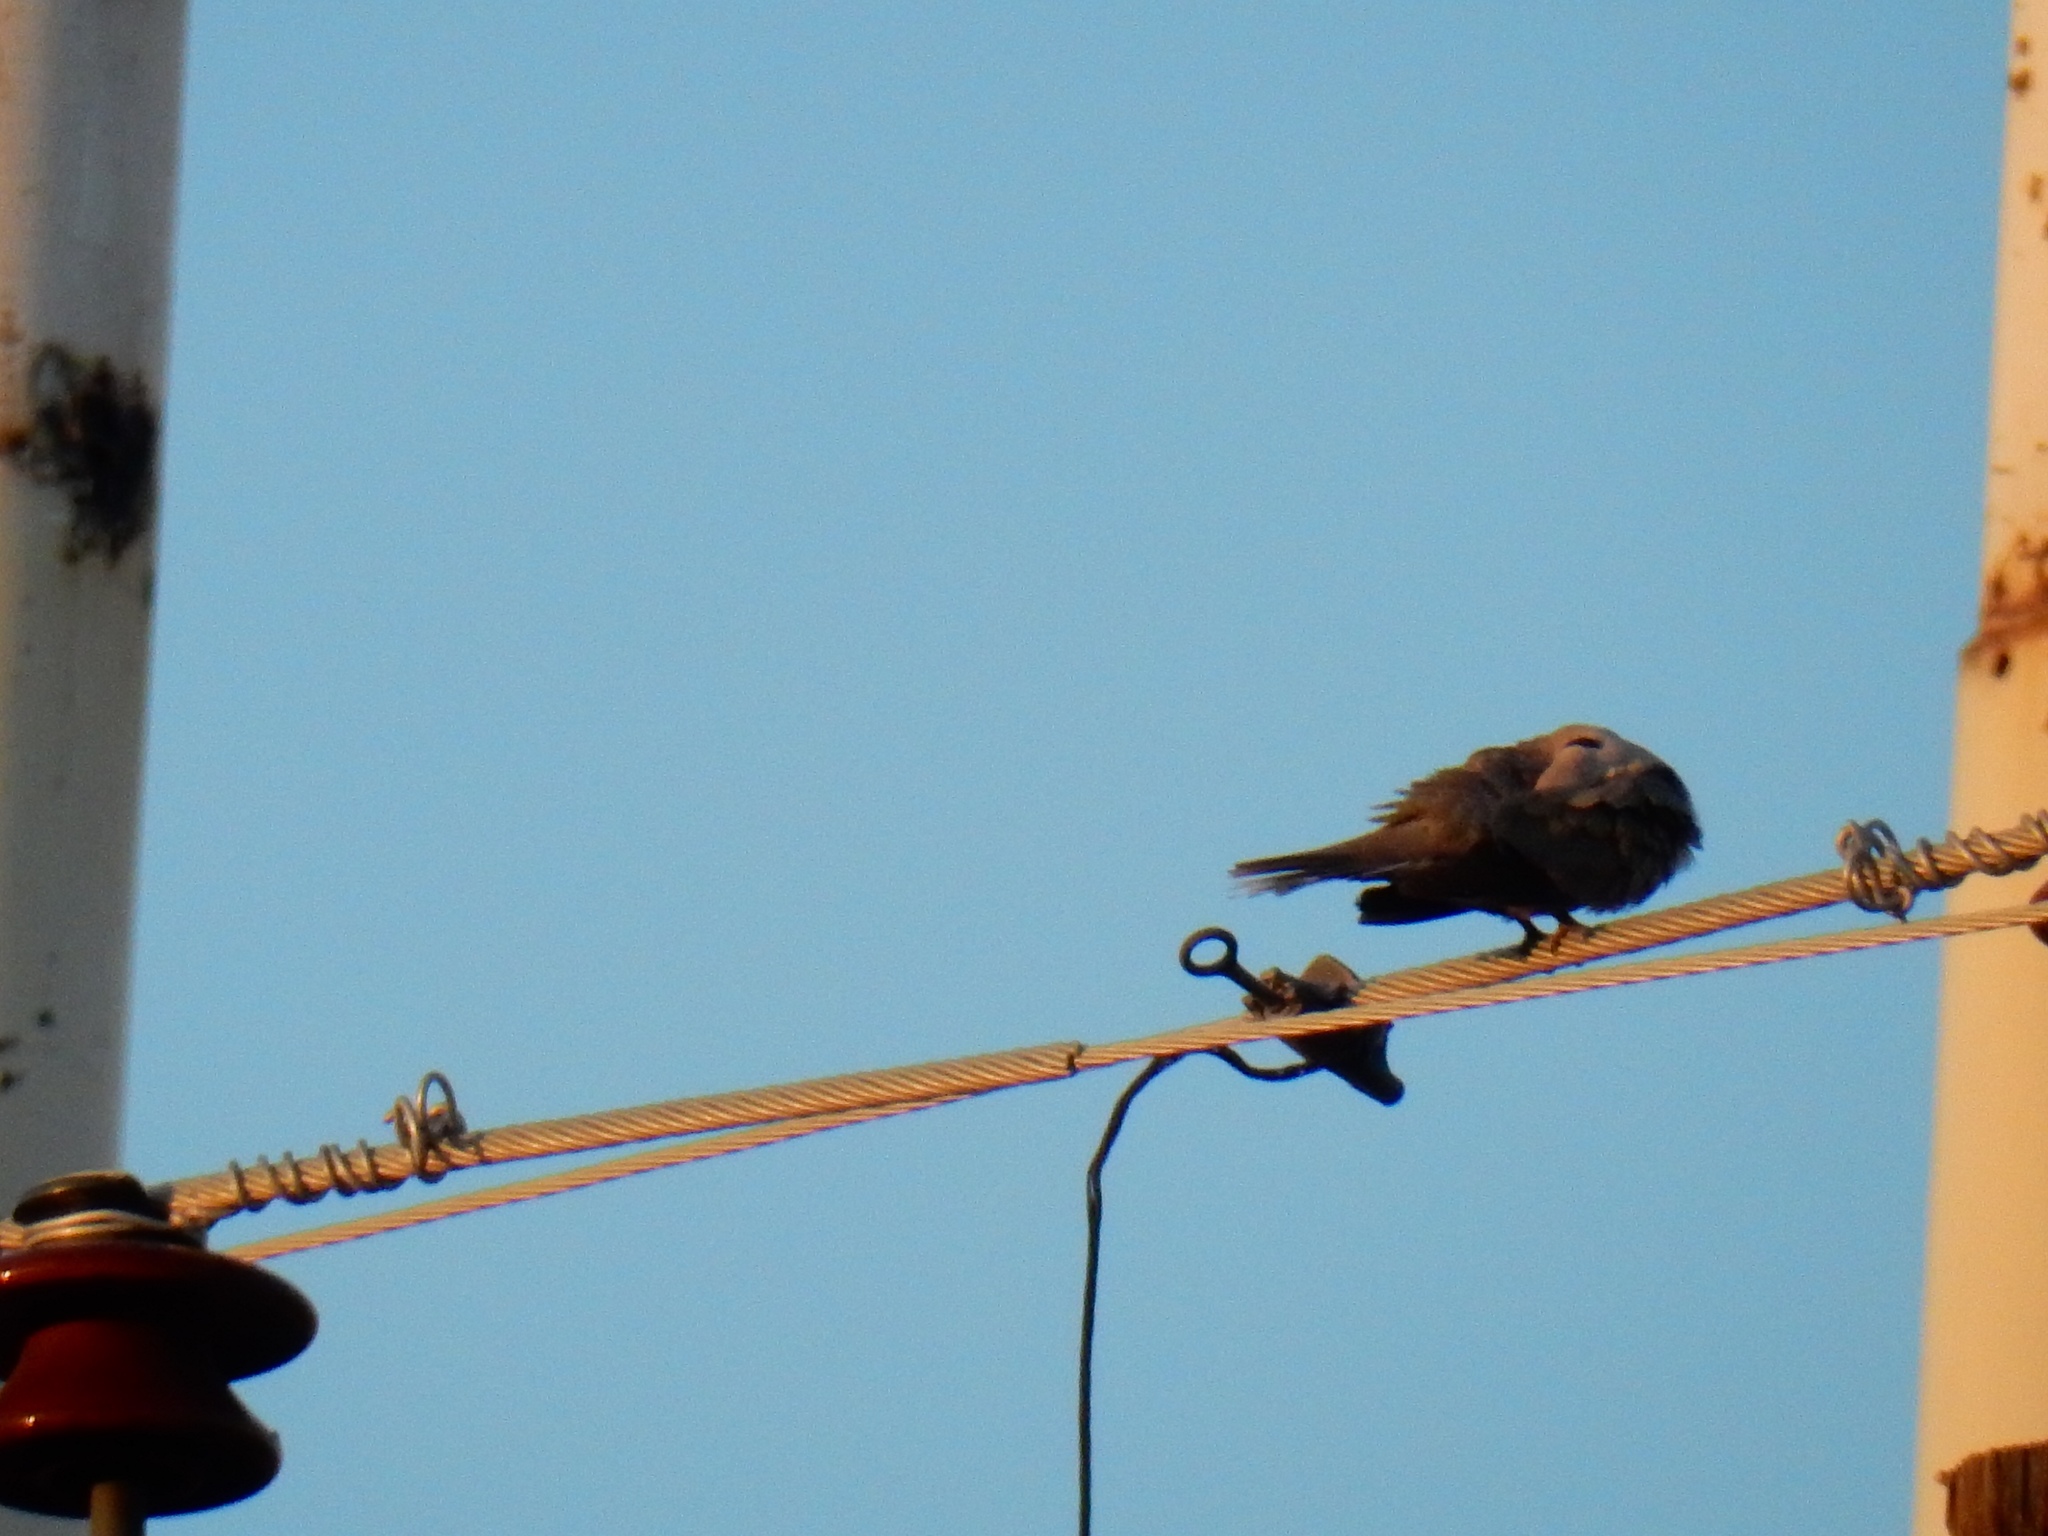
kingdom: Animalia
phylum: Chordata
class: Aves
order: Columbiformes
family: Columbidae
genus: Streptopelia
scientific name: Streptopelia decaocto
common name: Eurasian collared dove
